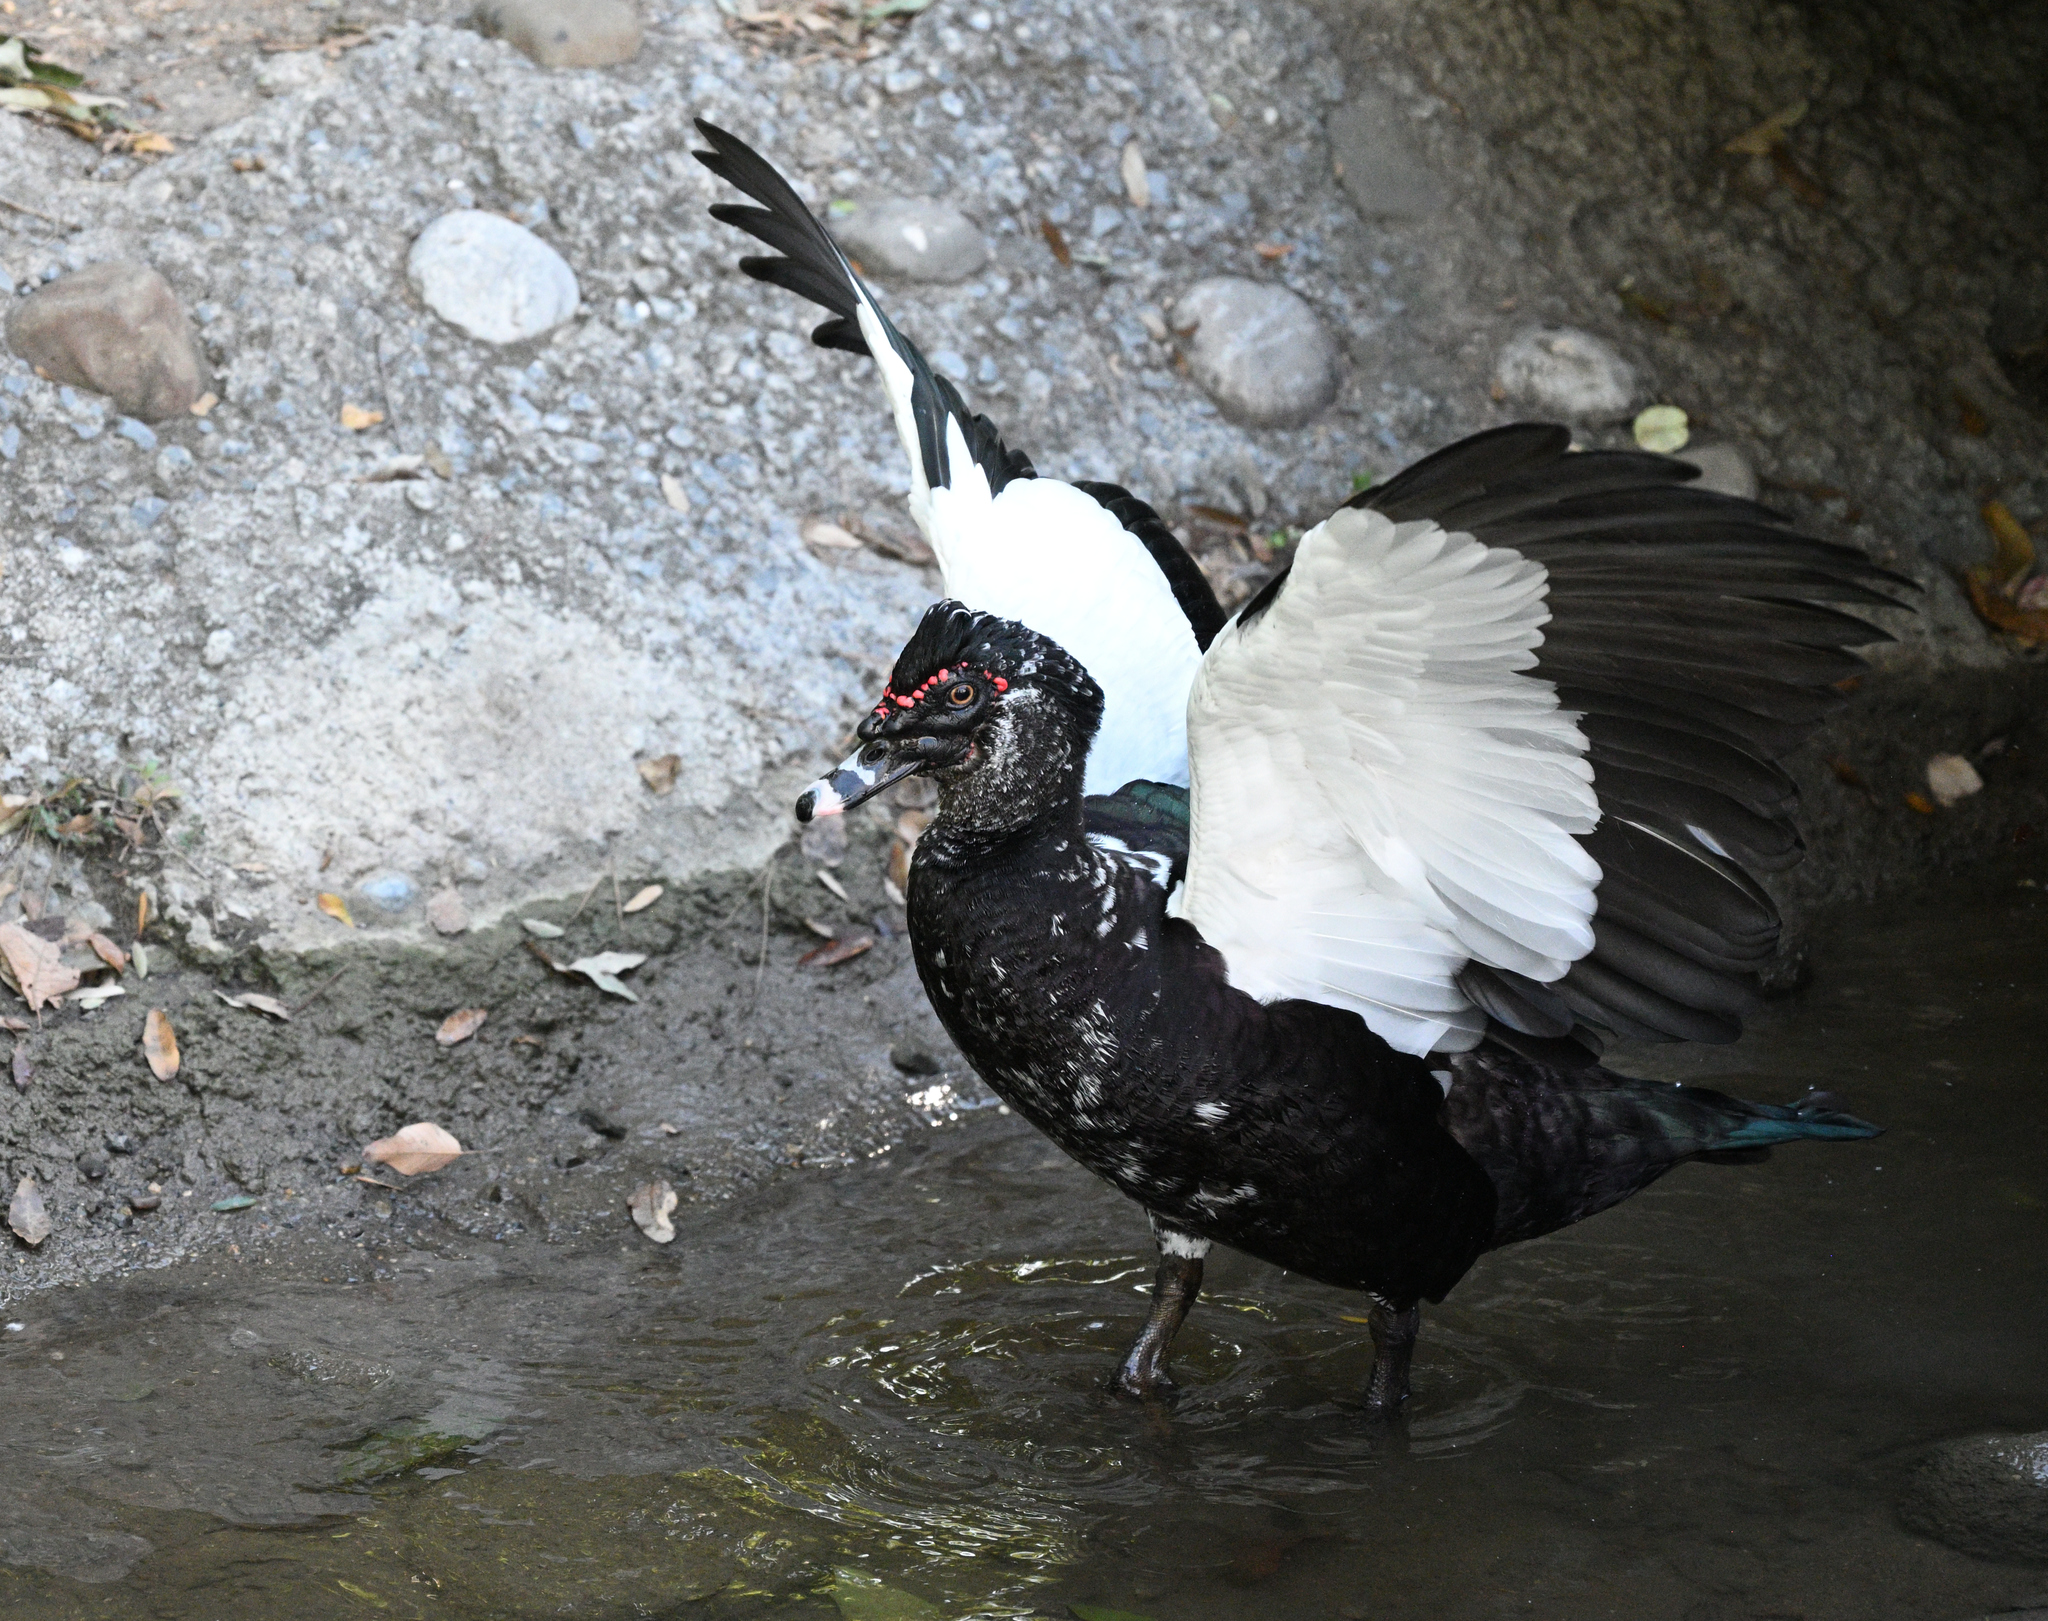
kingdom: Animalia
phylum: Chordata
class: Aves
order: Anseriformes
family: Anatidae
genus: Cairina
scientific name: Cairina moschata
